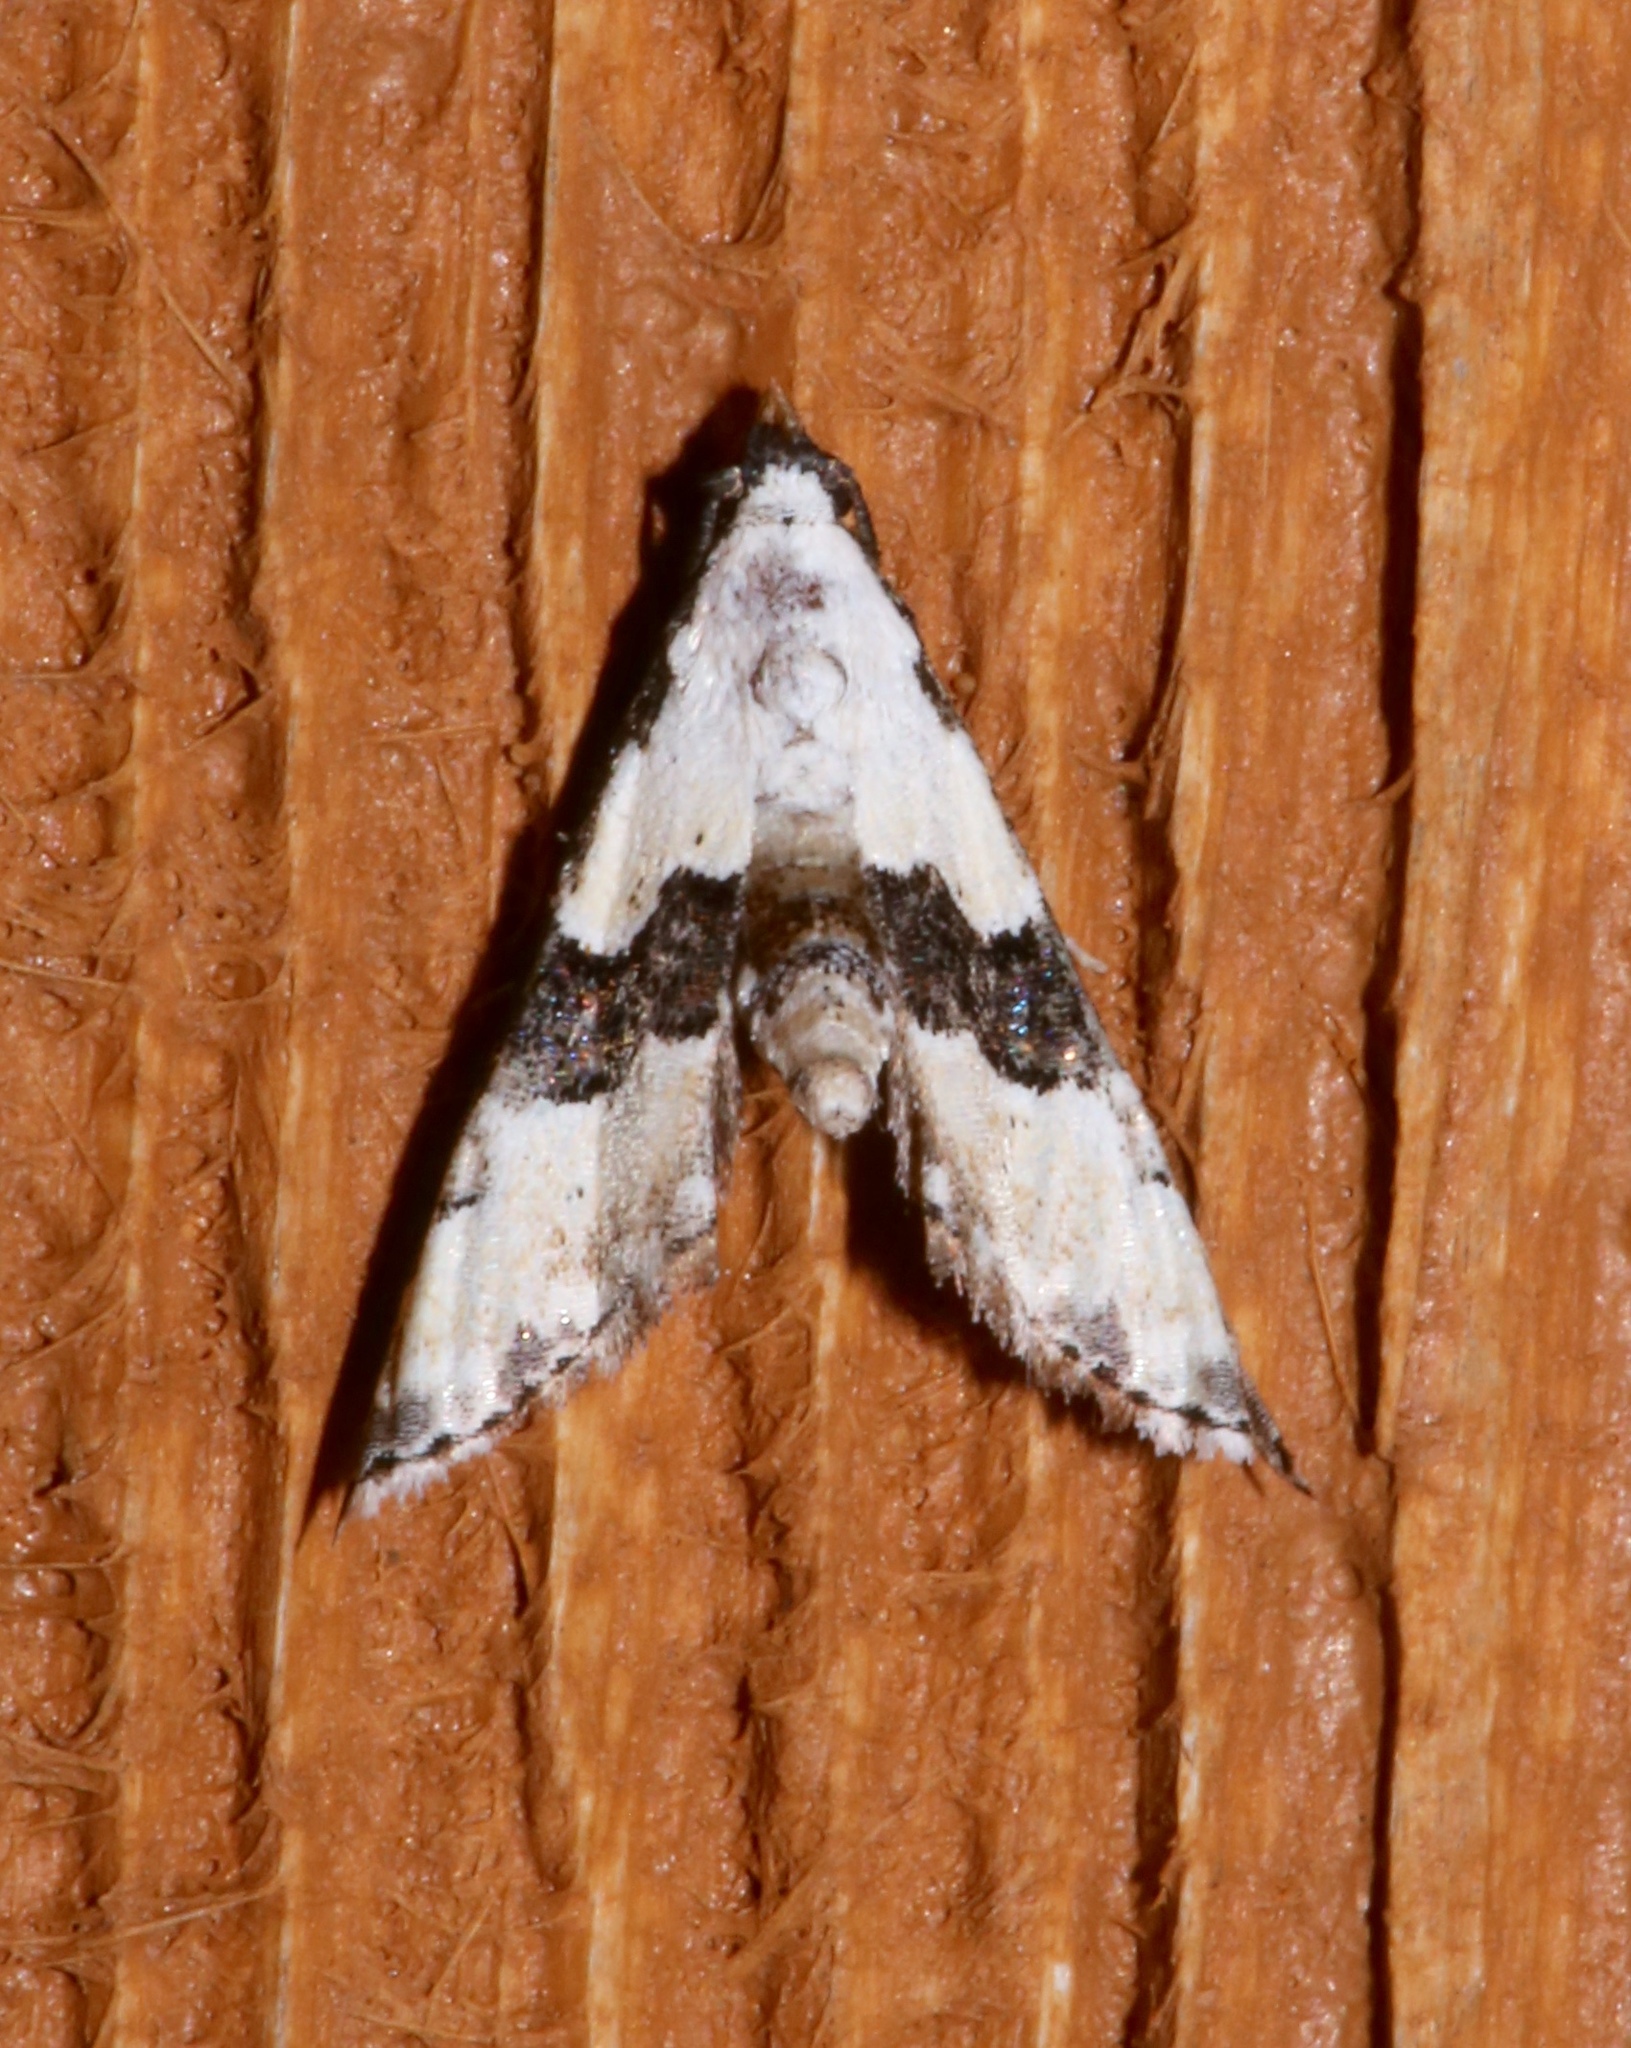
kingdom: Animalia
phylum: Arthropoda
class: Insecta
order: Lepidoptera
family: Noctuidae
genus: Nigetia
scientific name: Nigetia formosalis
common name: Thin-winged owlet
